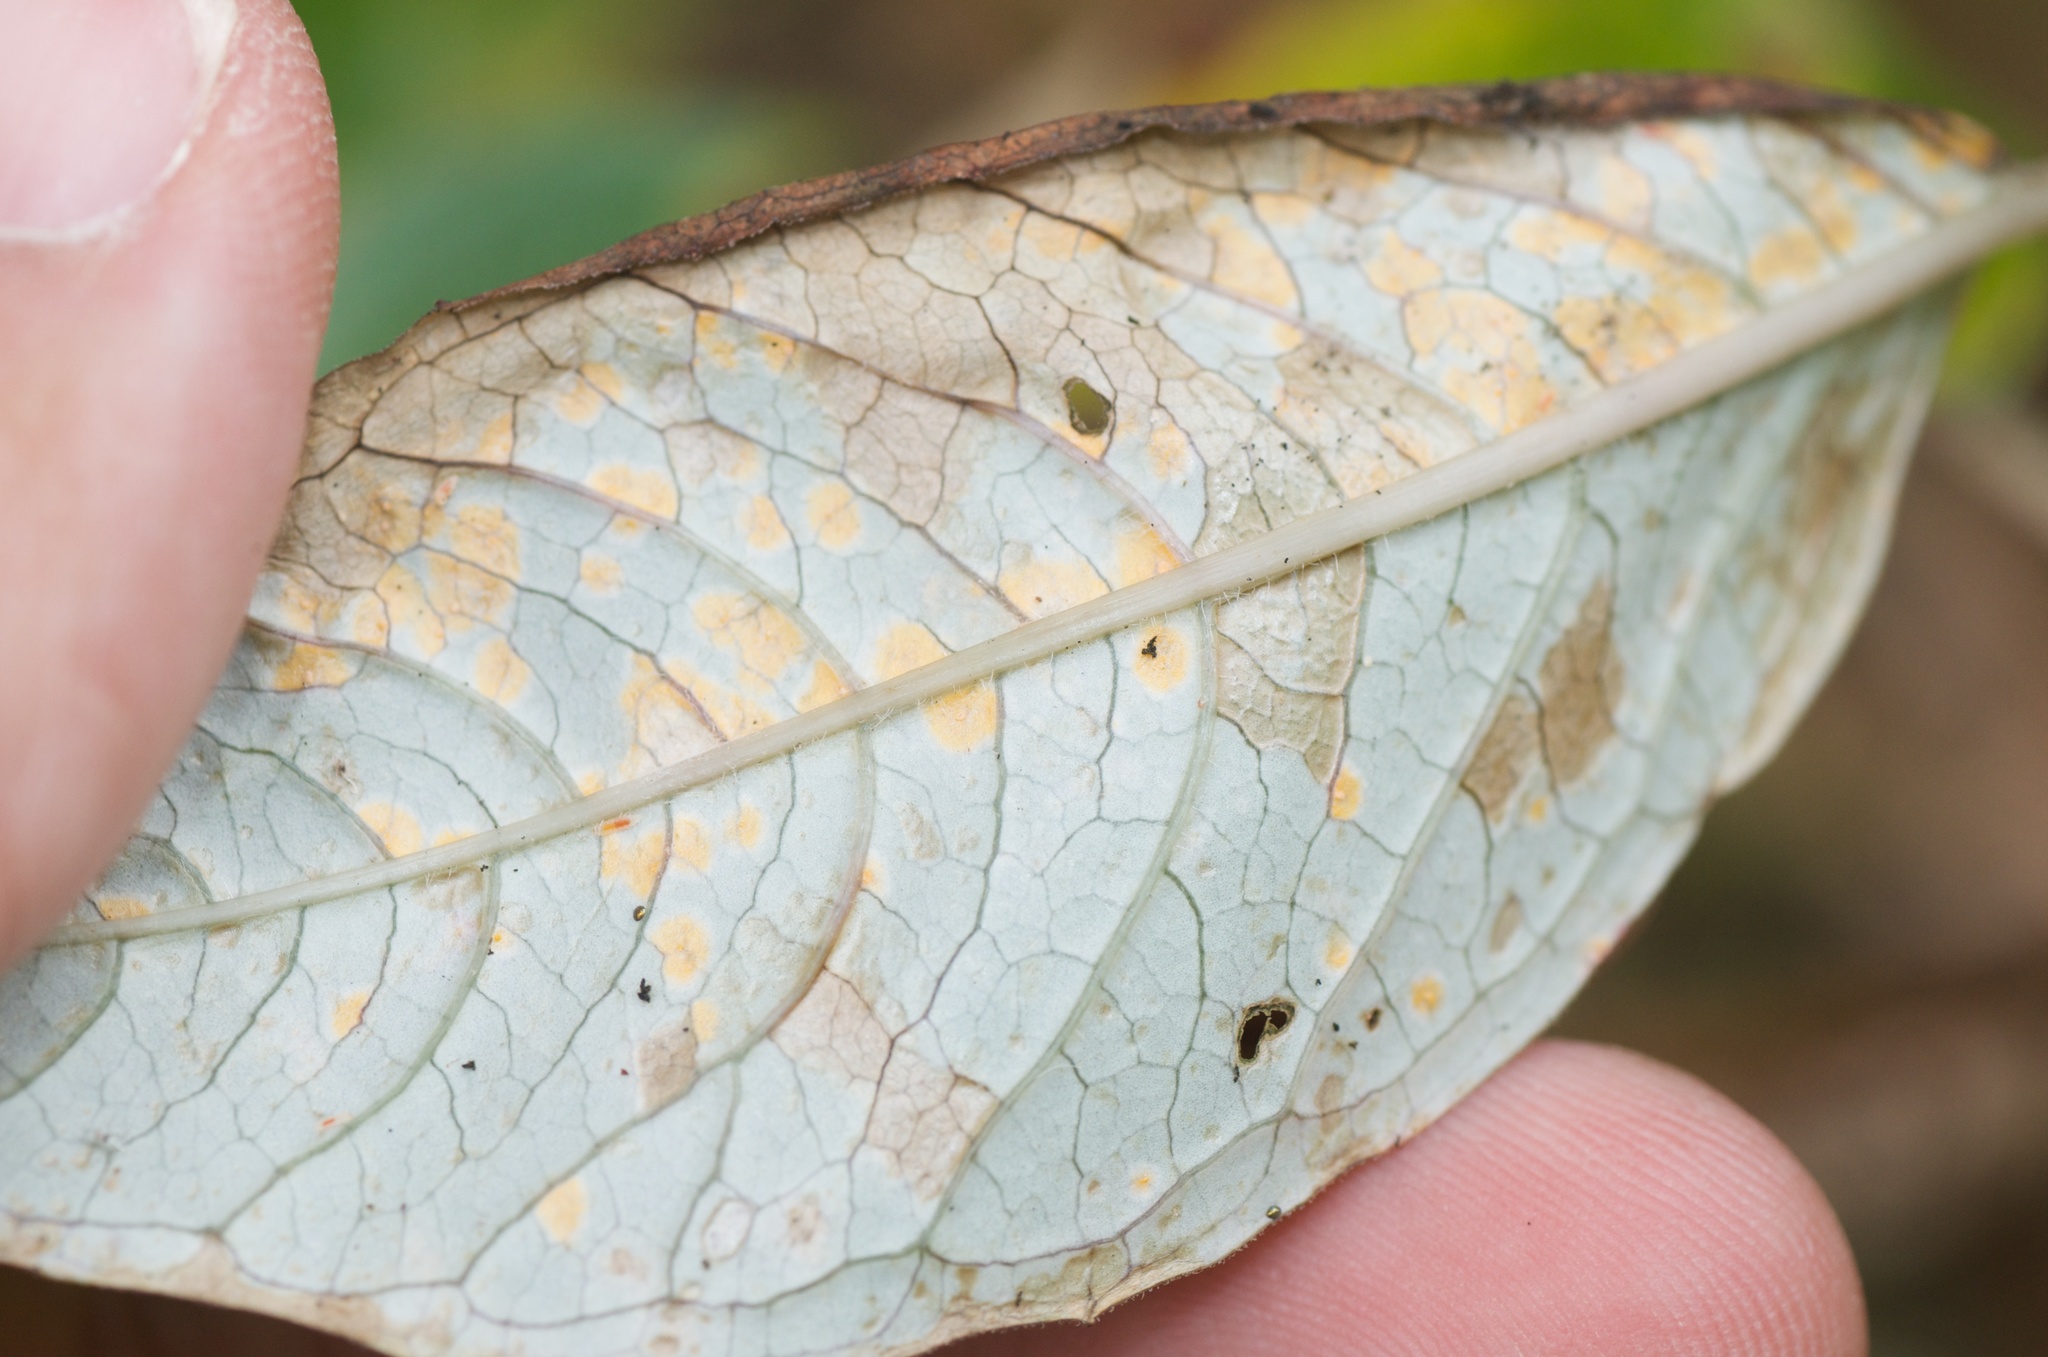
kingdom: Fungi
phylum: Basidiomycota
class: Pucciniomycetes
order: Pucciniales
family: Mikronegeriaceae
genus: Mikronegeria
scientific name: Mikronegeria fuchsiae
